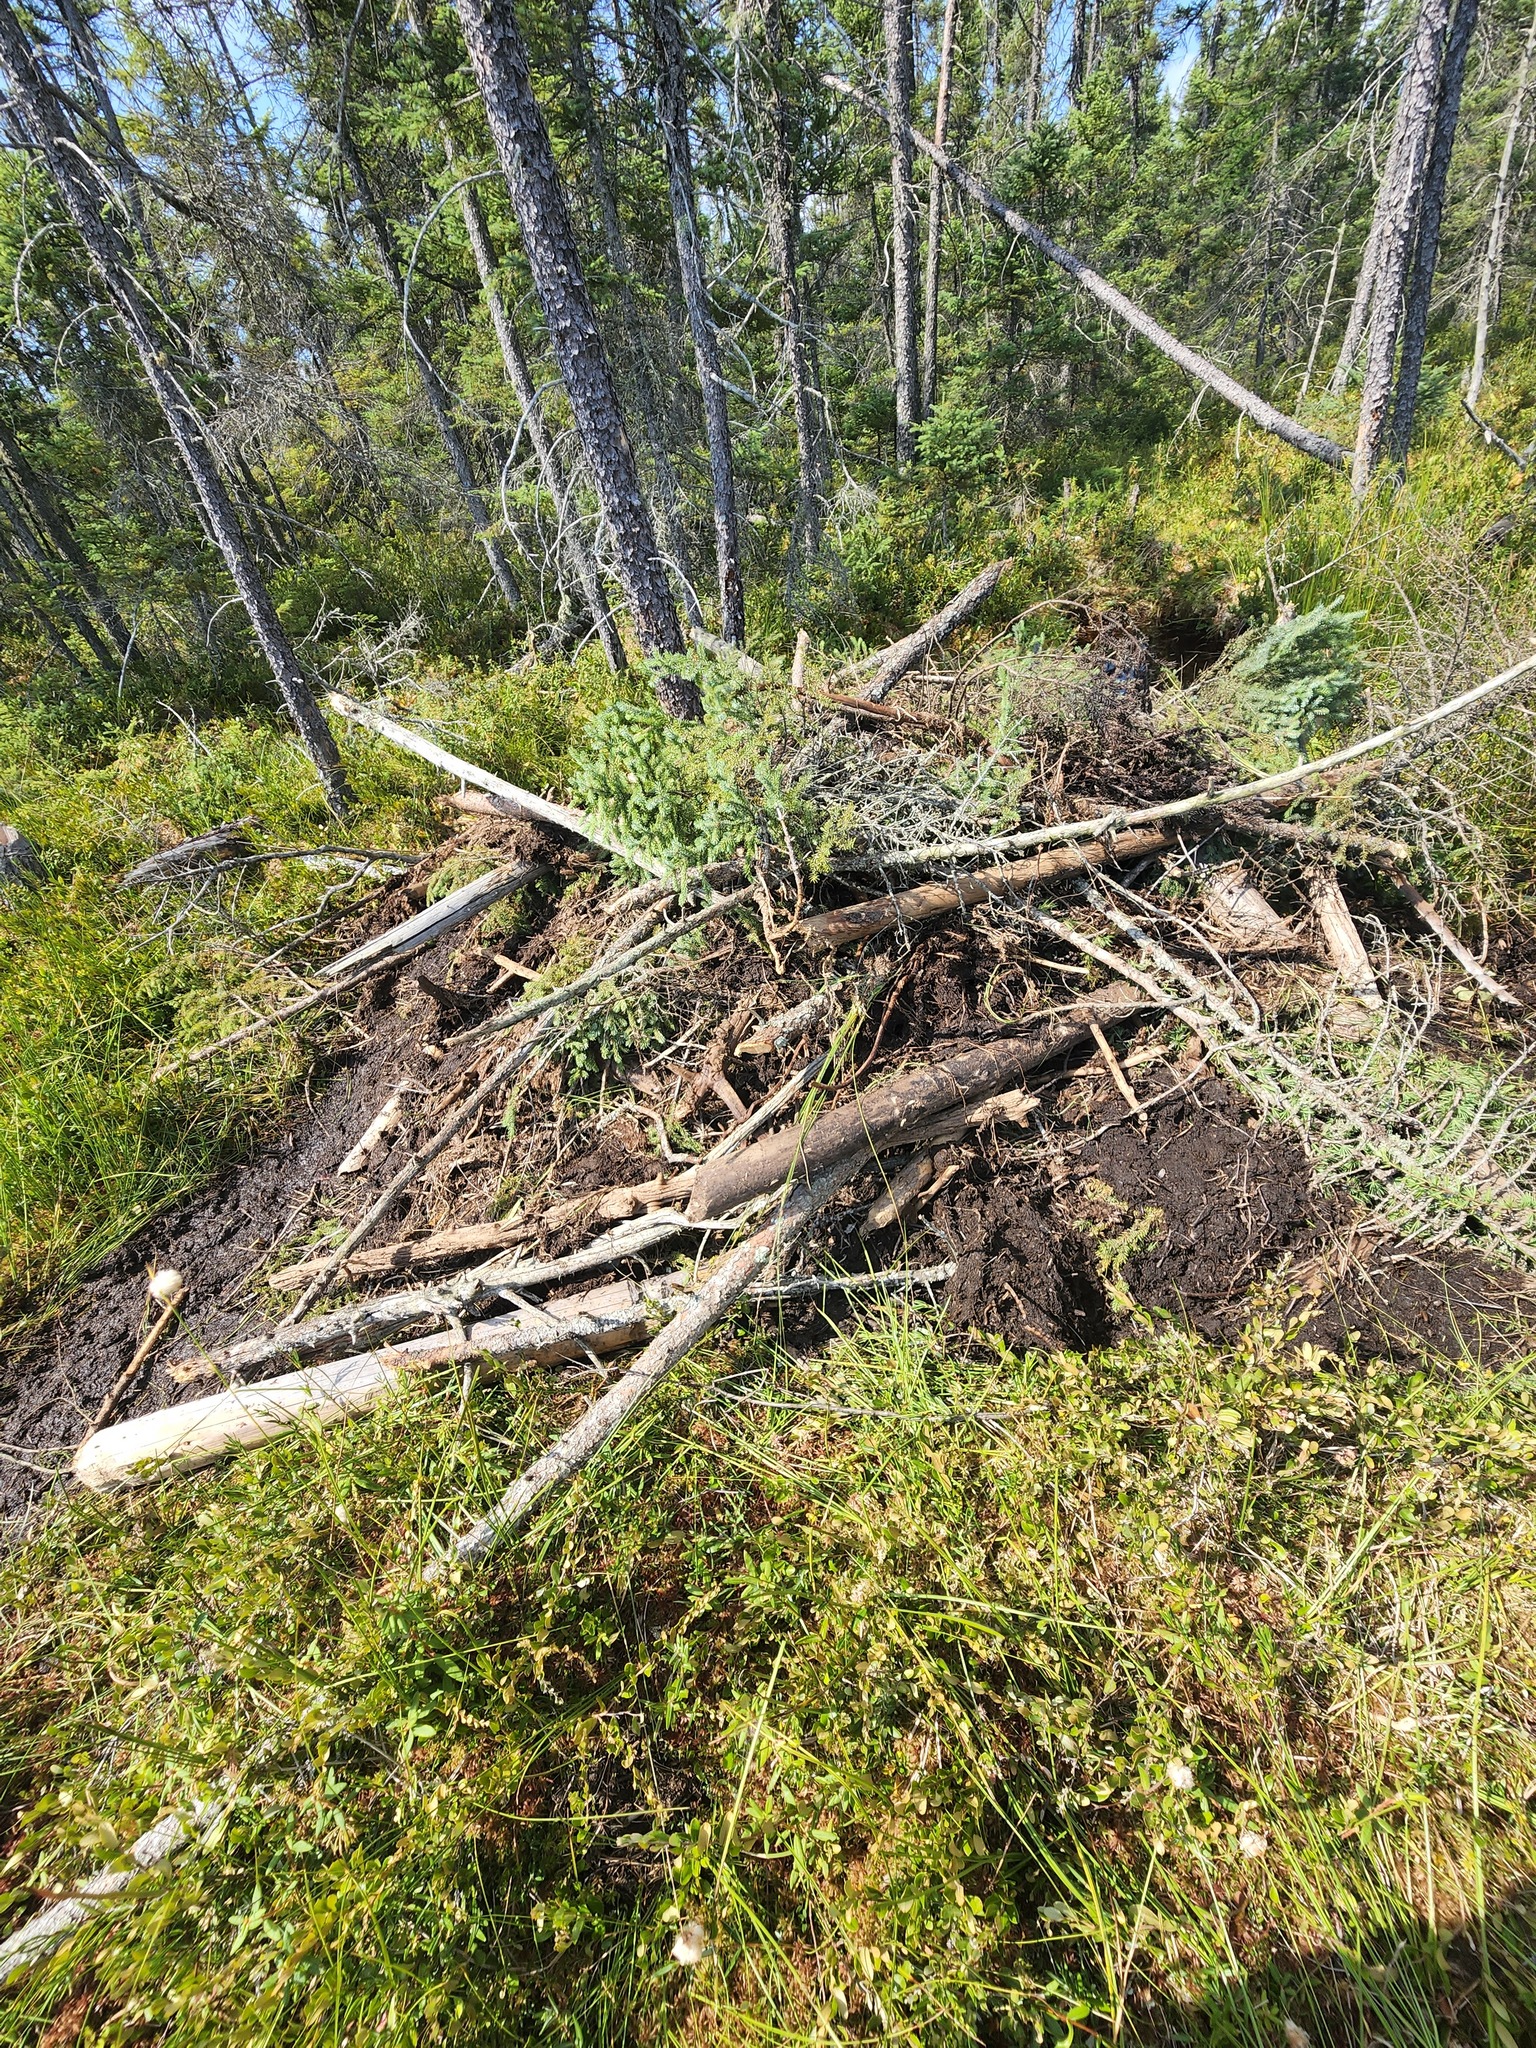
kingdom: Animalia
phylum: Chordata
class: Mammalia
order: Rodentia
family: Castoridae
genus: Castor
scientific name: Castor canadensis
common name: American beaver
